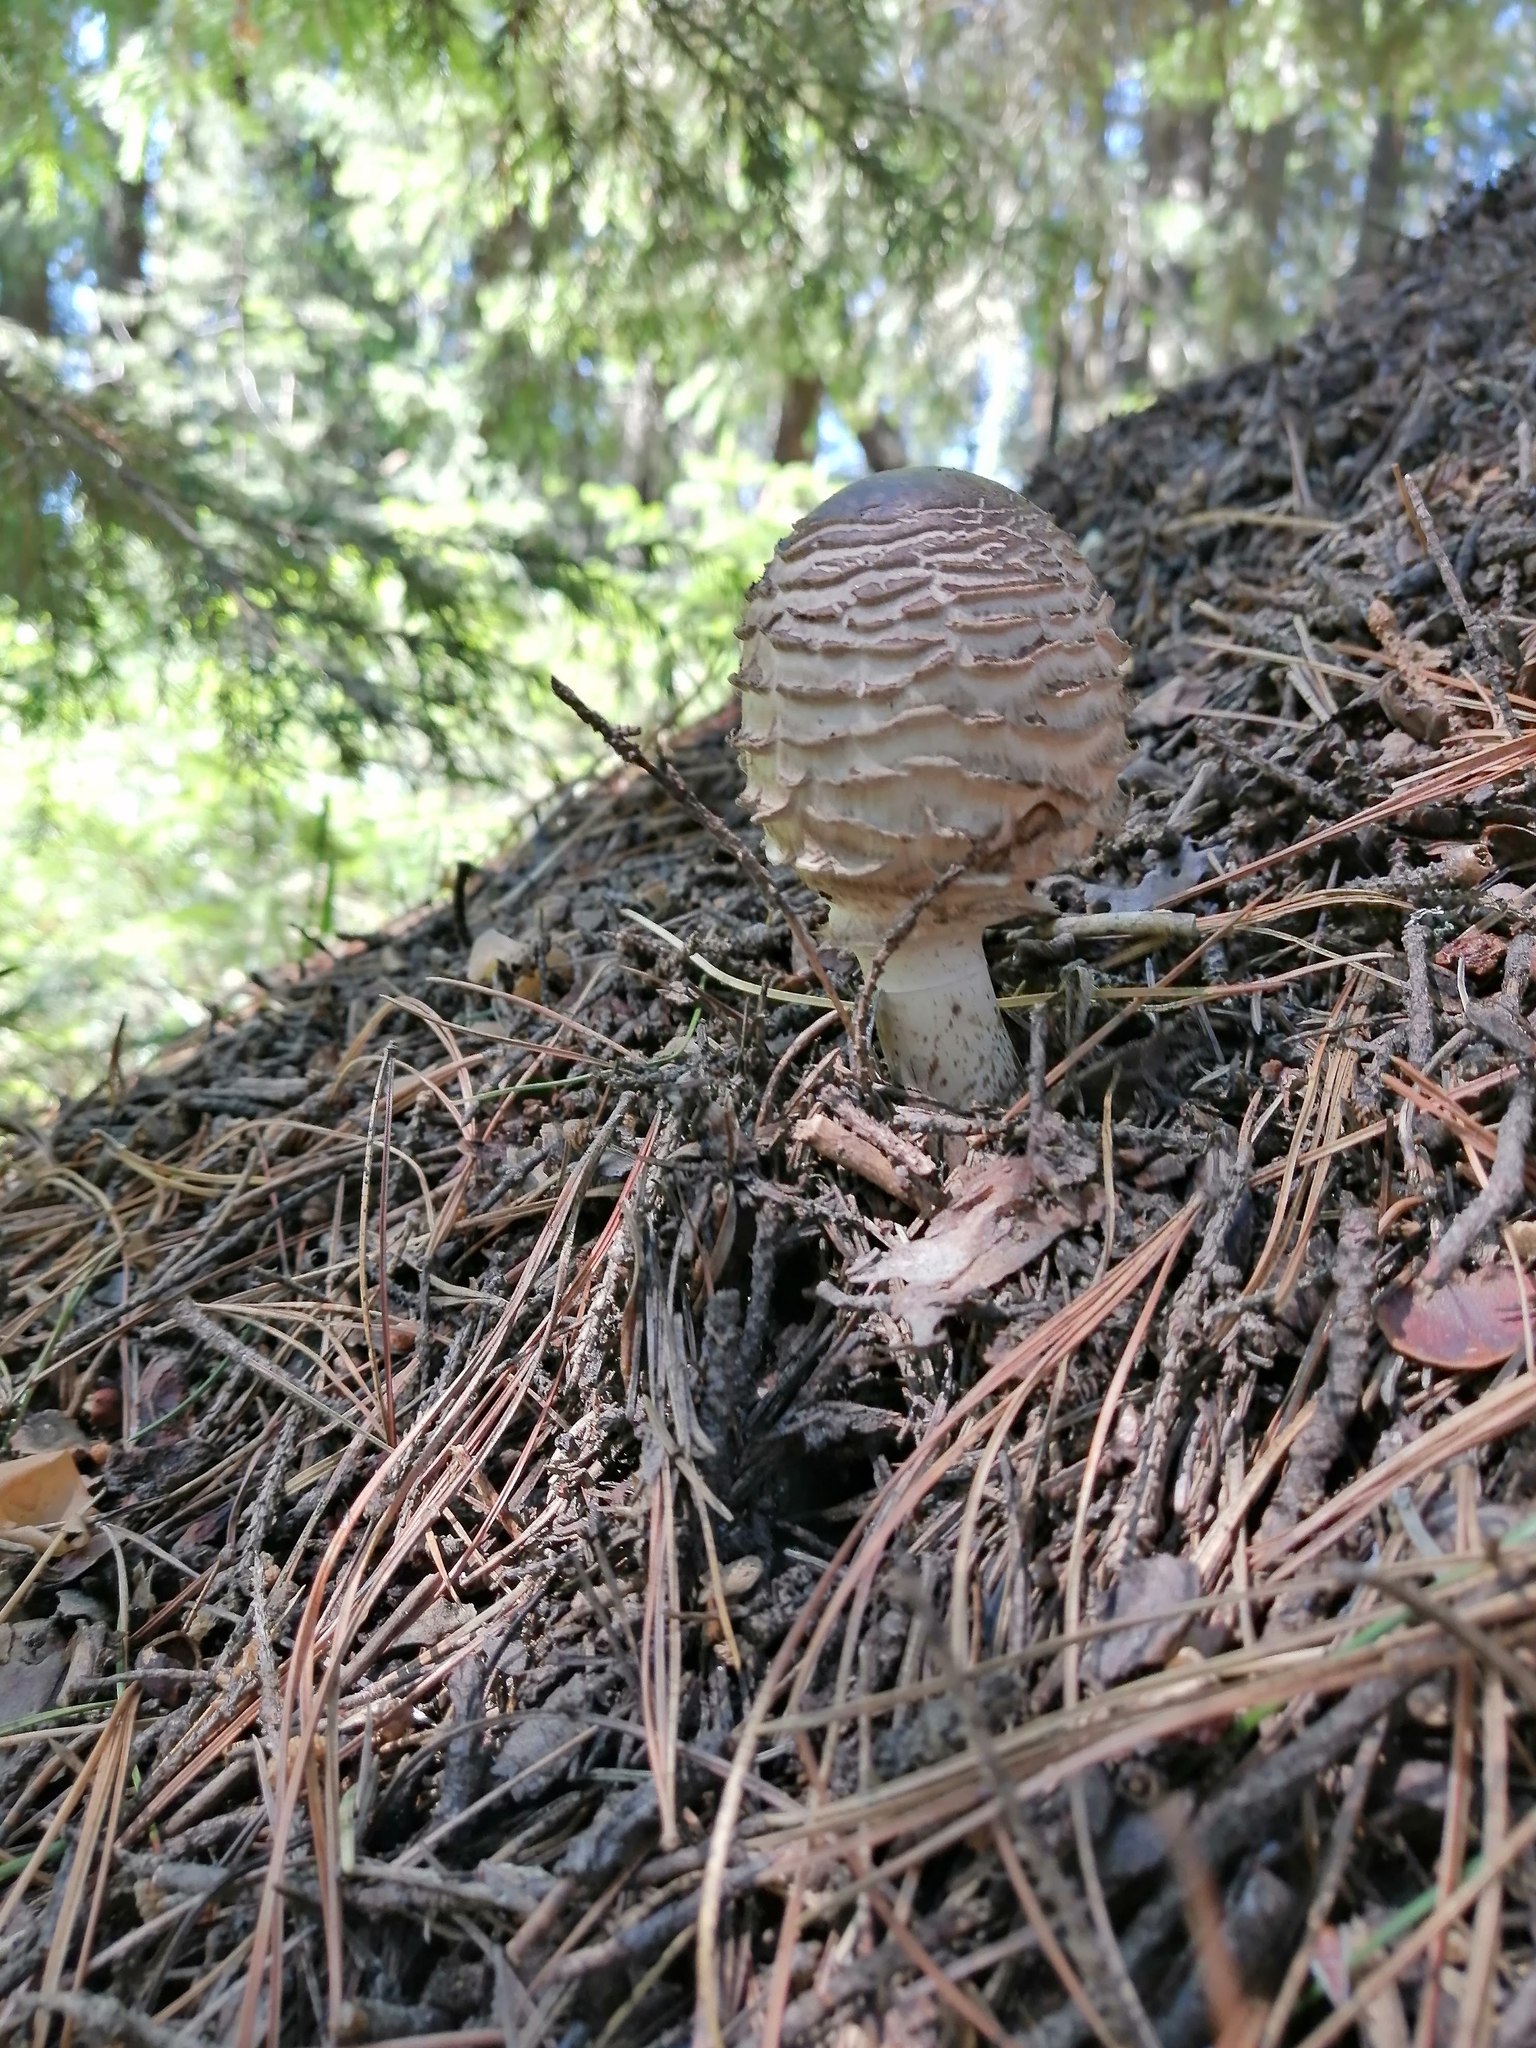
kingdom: Fungi
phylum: Basidiomycota
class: Agaricomycetes
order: Agaricales
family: Agaricaceae
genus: Chlorophyllum
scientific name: Chlorophyllum olivieri
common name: Conifer parasol
